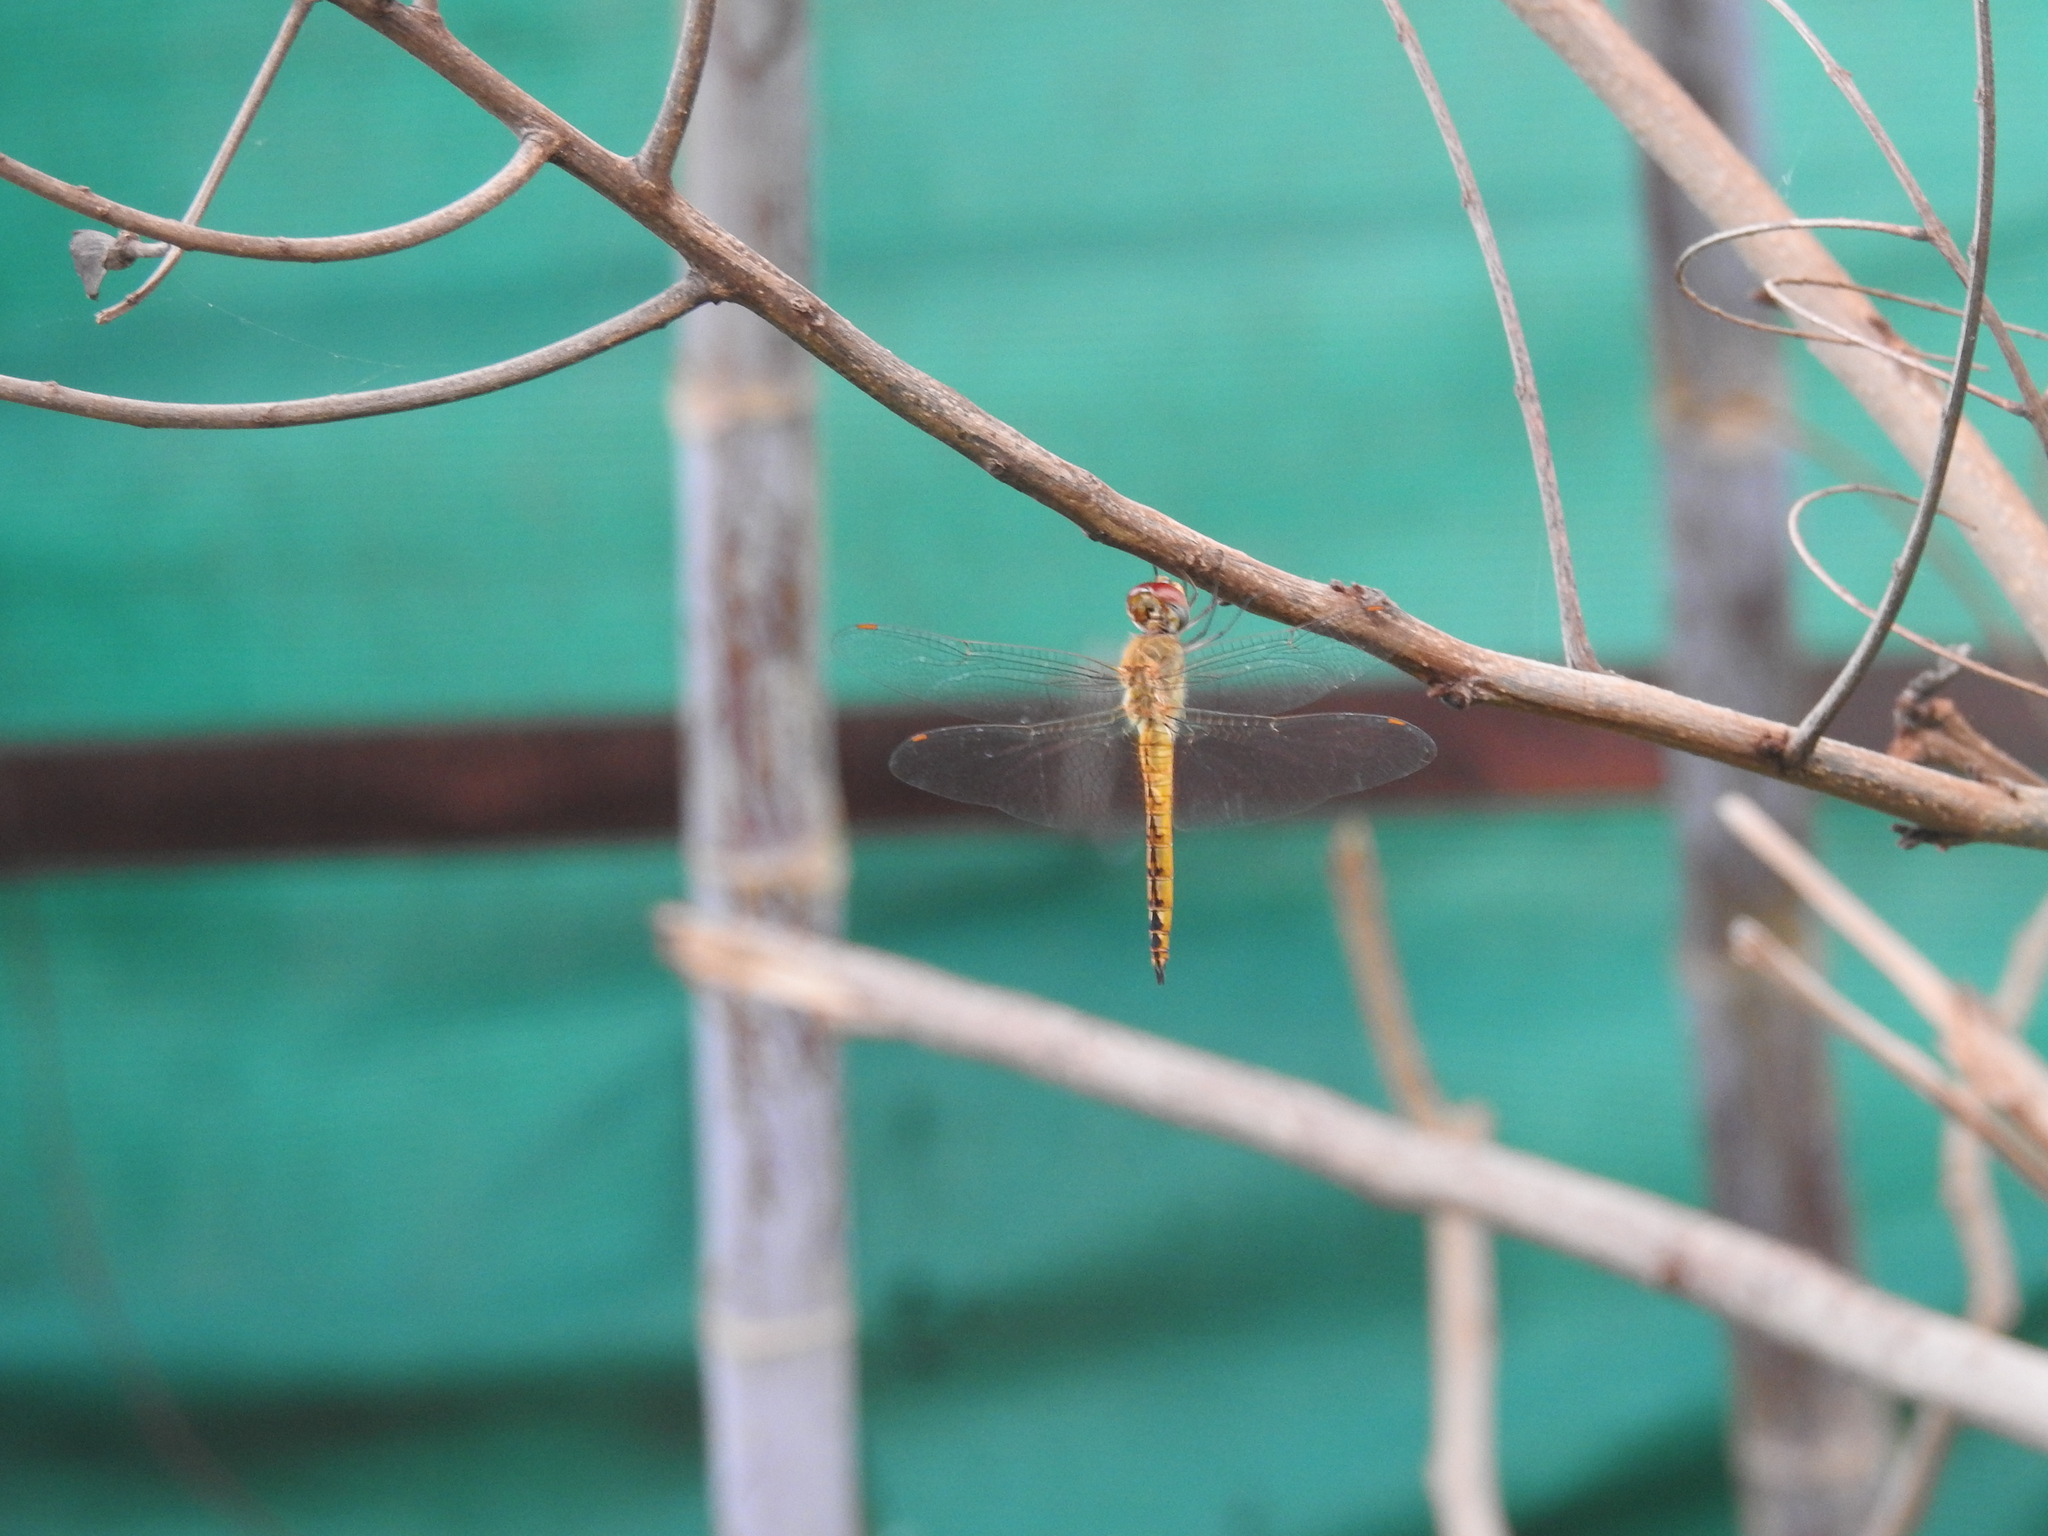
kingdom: Animalia
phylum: Arthropoda
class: Insecta
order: Odonata
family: Libellulidae
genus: Pantala
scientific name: Pantala flavescens
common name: Wandering glider
